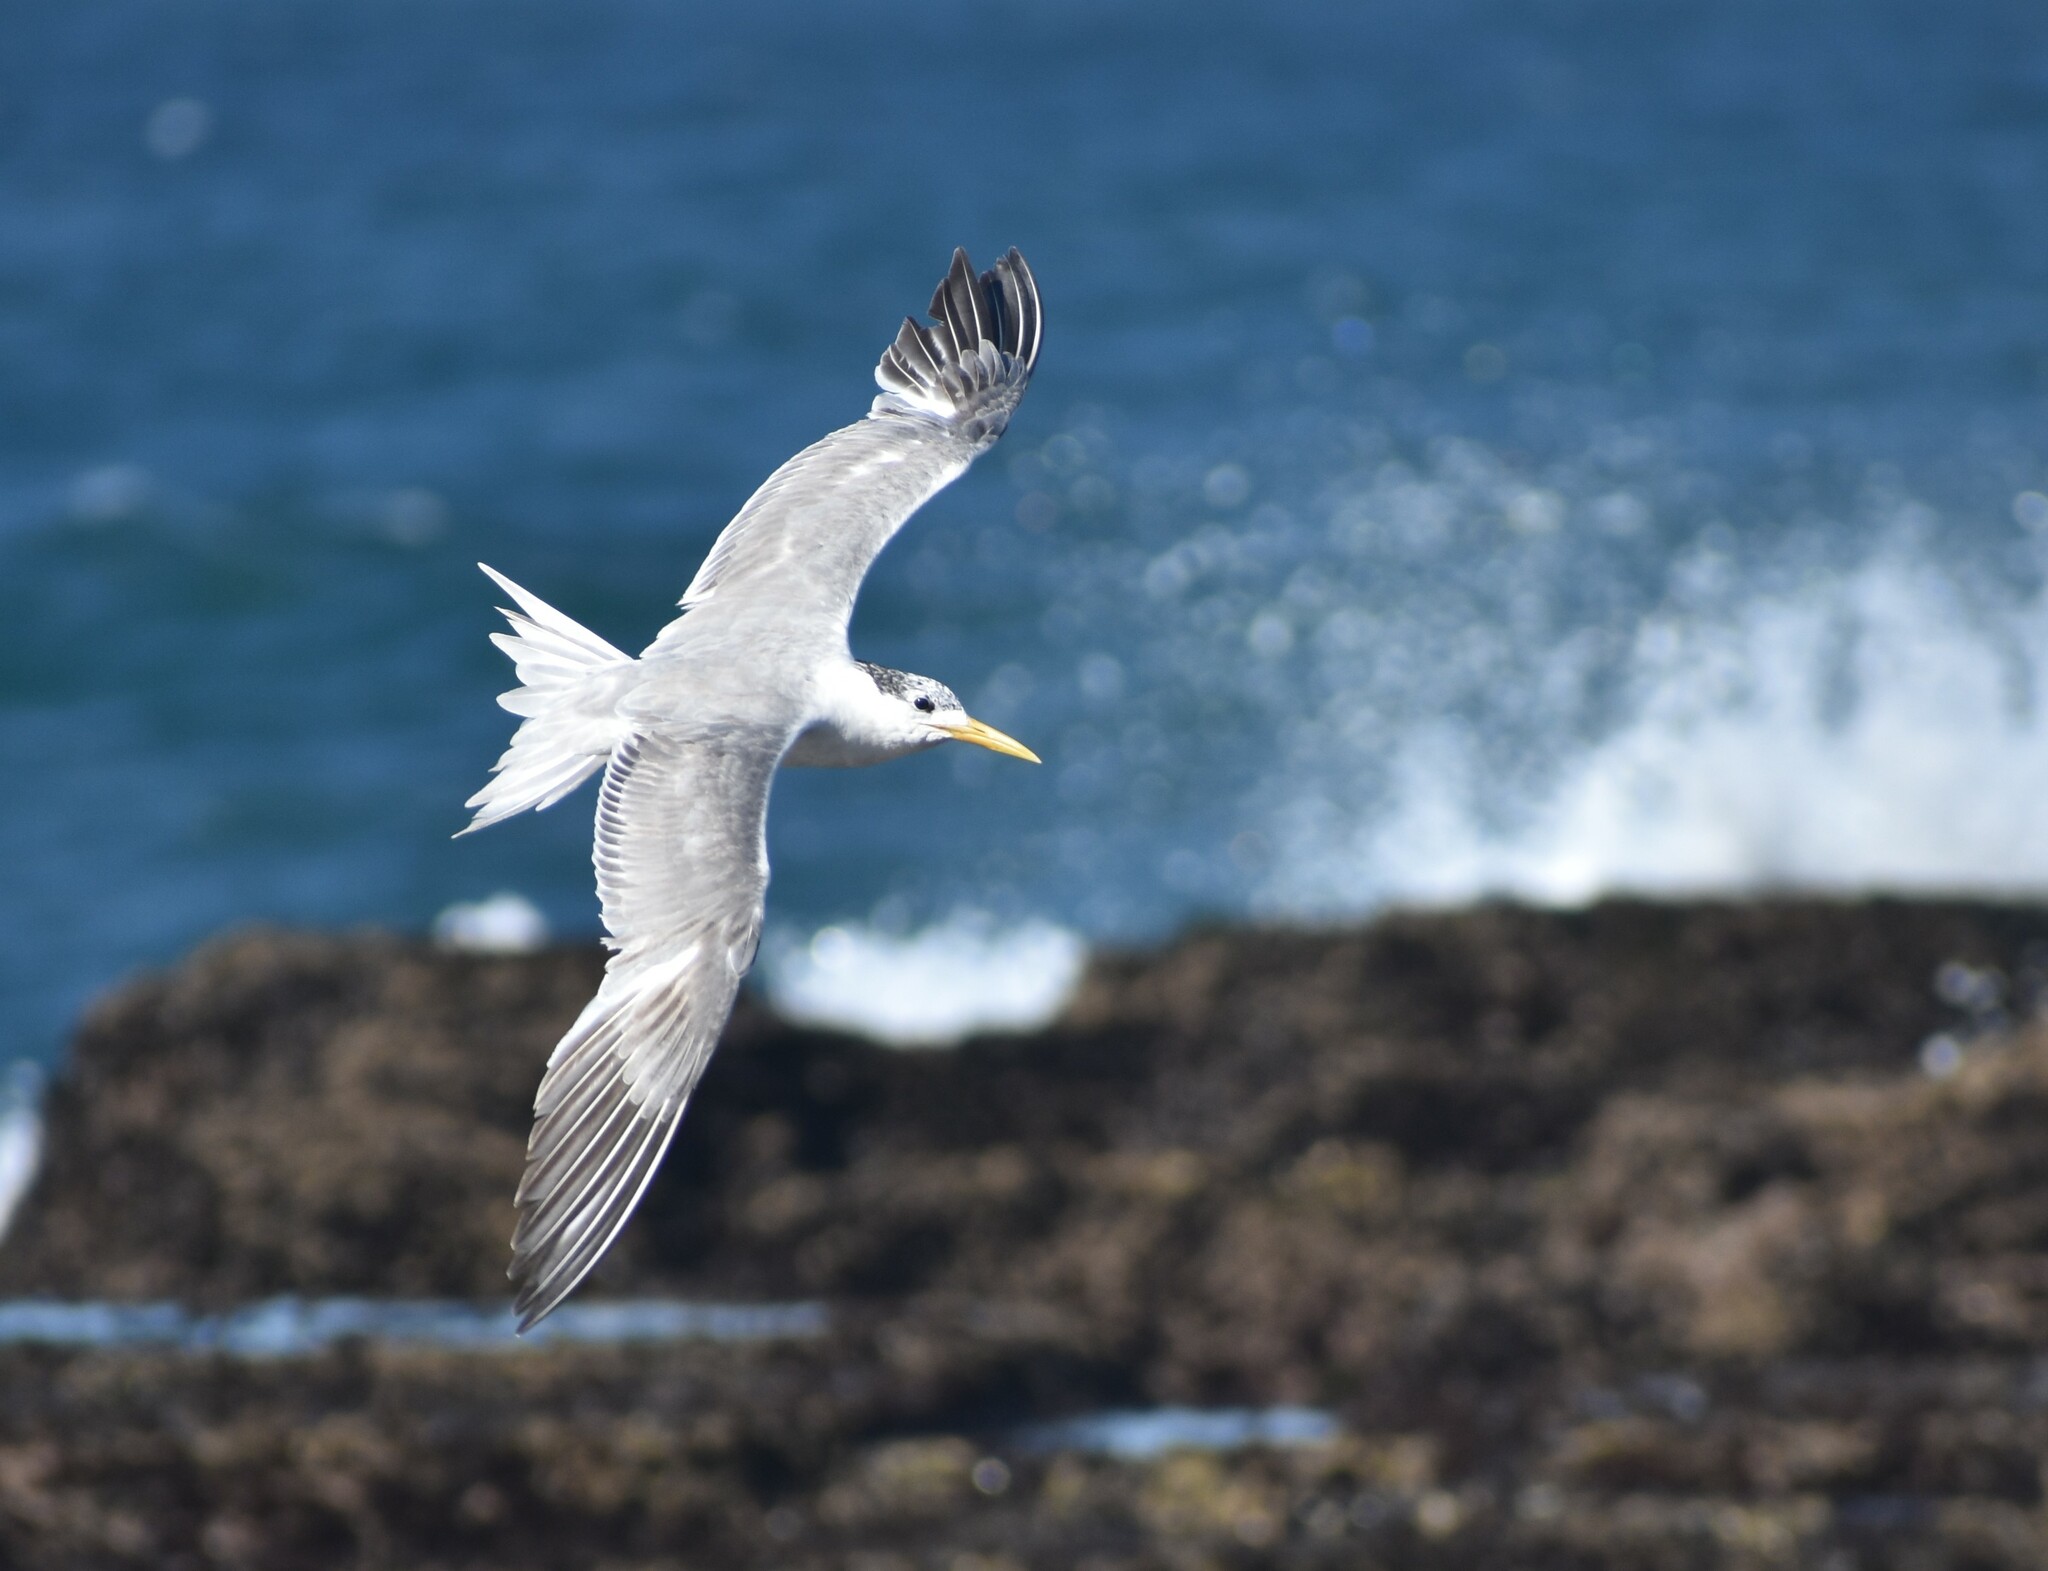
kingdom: Animalia
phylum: Chordata
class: Aves
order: Charadriiformes
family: Laridae
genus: Thalasseus
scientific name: Thalasseus bergii
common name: Greater crested tern
